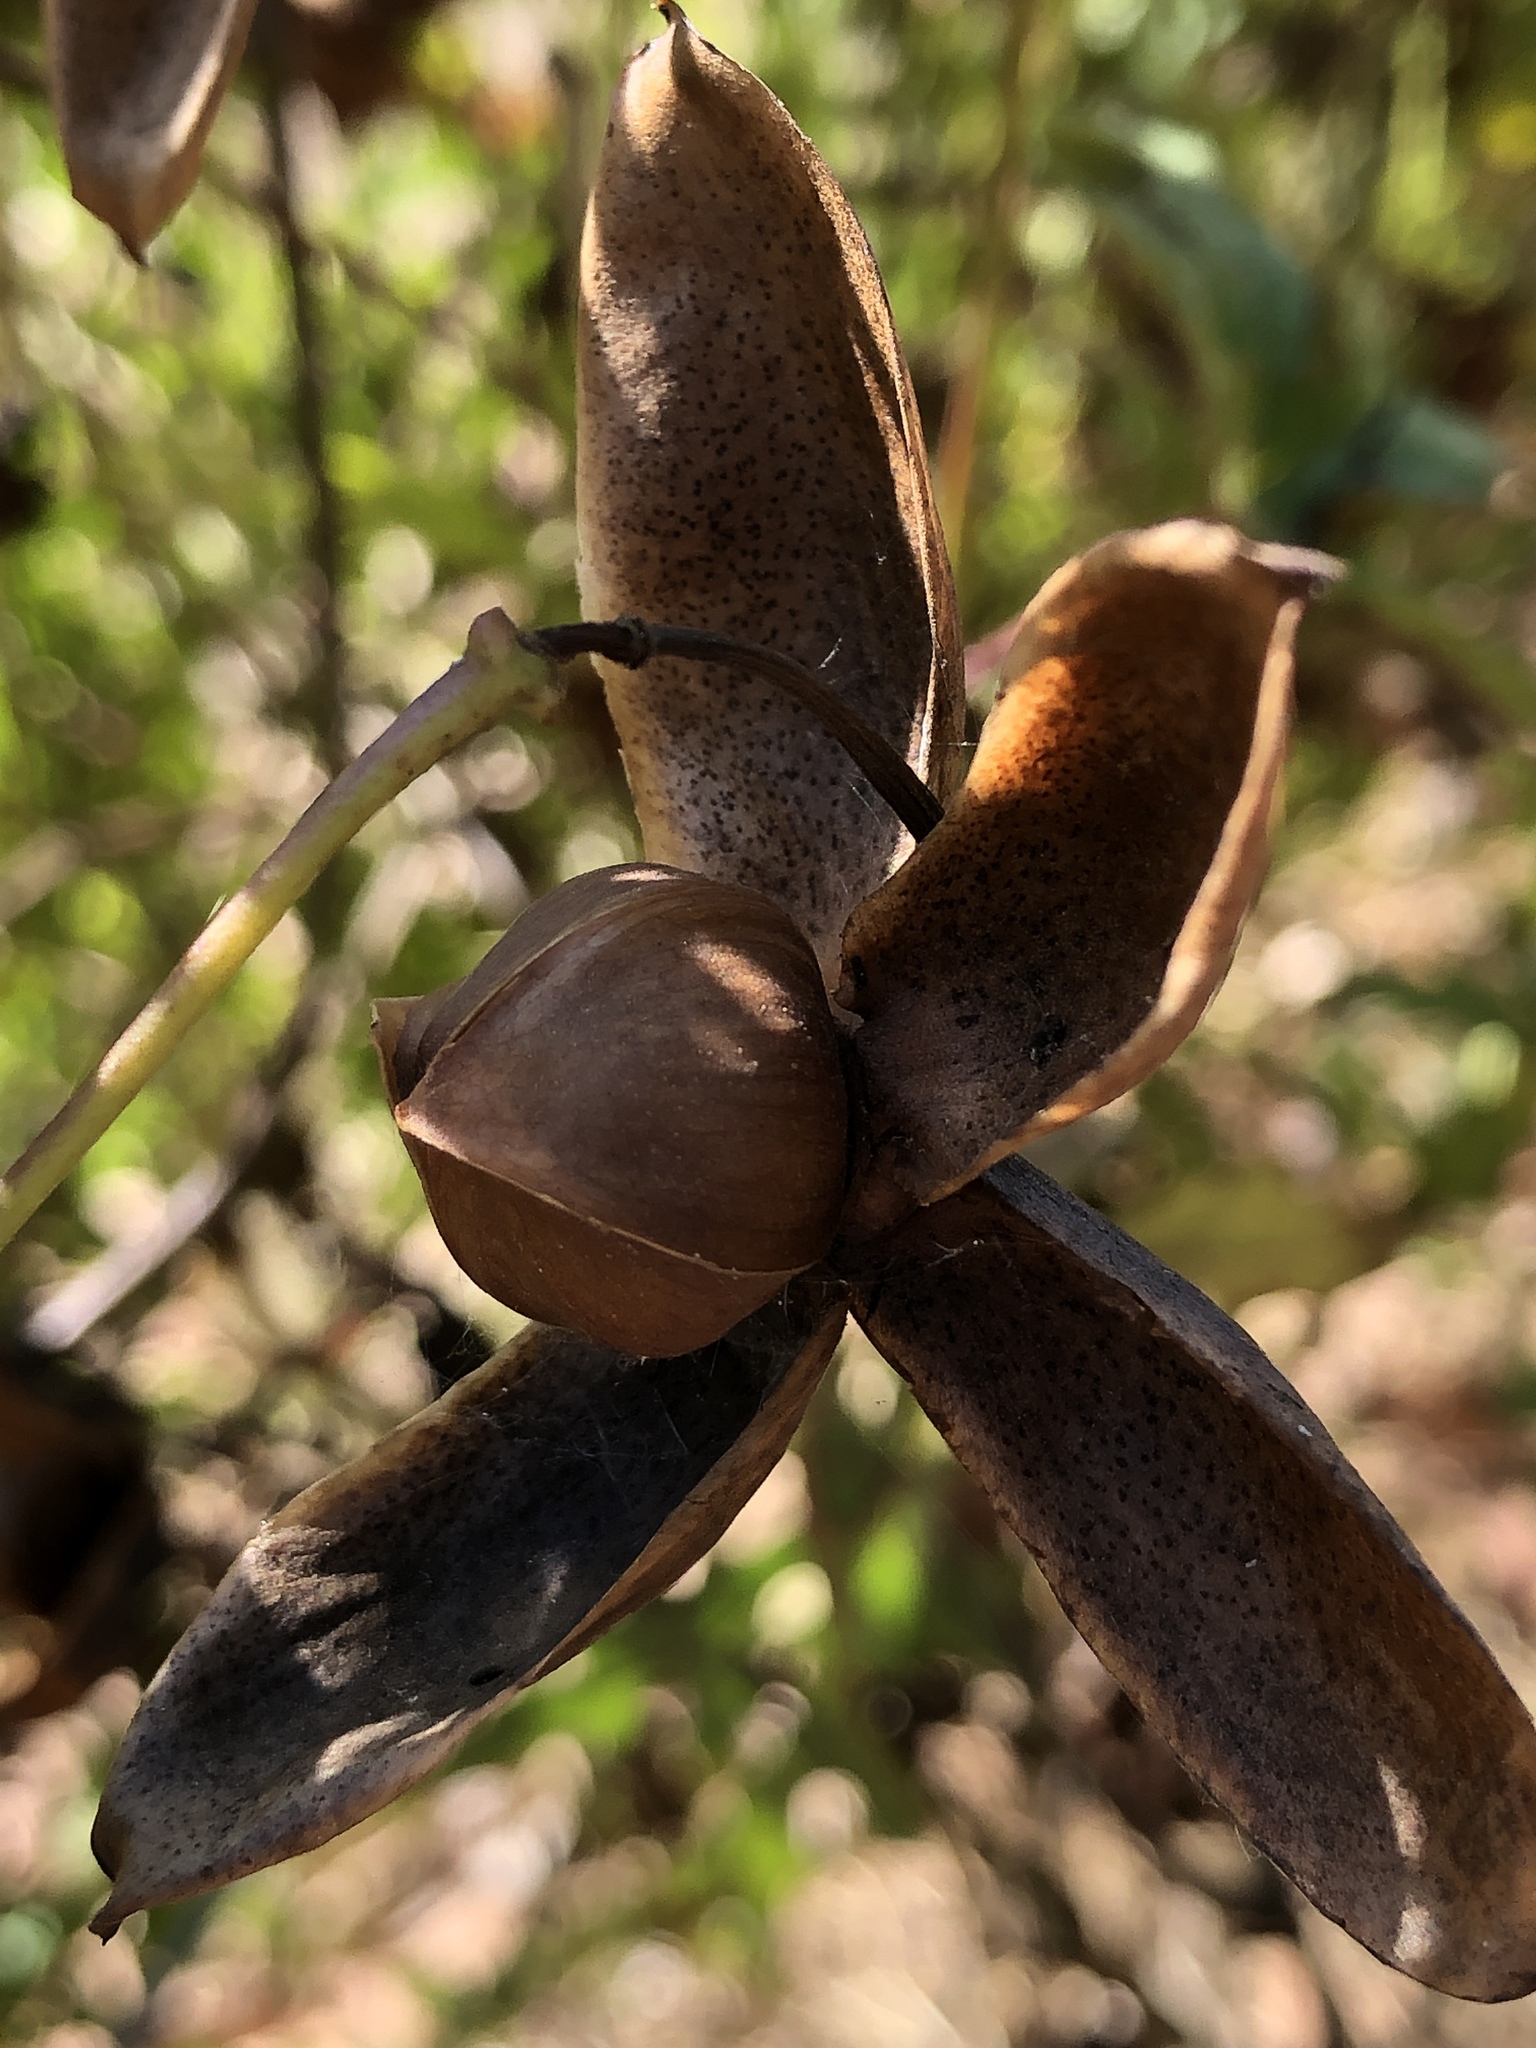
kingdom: Plantae
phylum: Tracheophyta
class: Magnoliopsida
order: Solanales
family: Convolvulaceae
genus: Distimake
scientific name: Distimake dissectus
